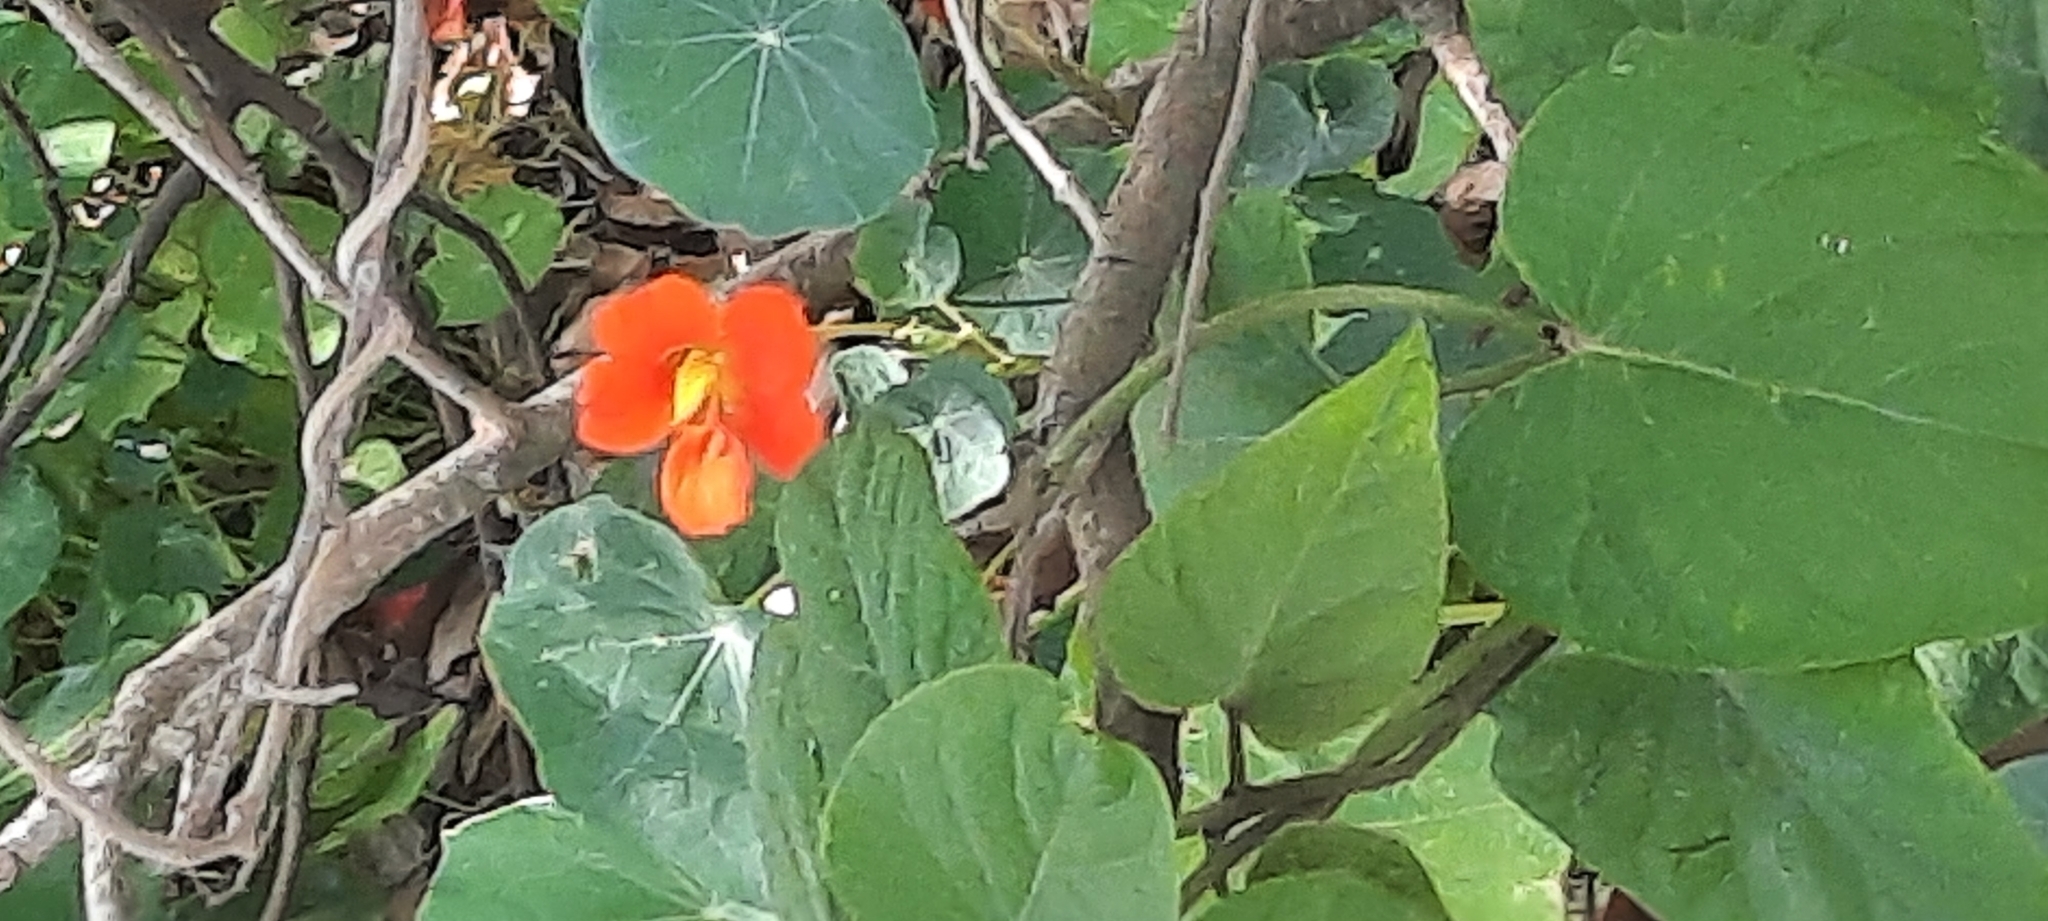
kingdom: Plantae
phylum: Tracheophyta
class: Magnoliopsida
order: Brassicales
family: Tropaeolaceae
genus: Tropaeolum
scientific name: Tropaeolum majus
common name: Nasturtium
